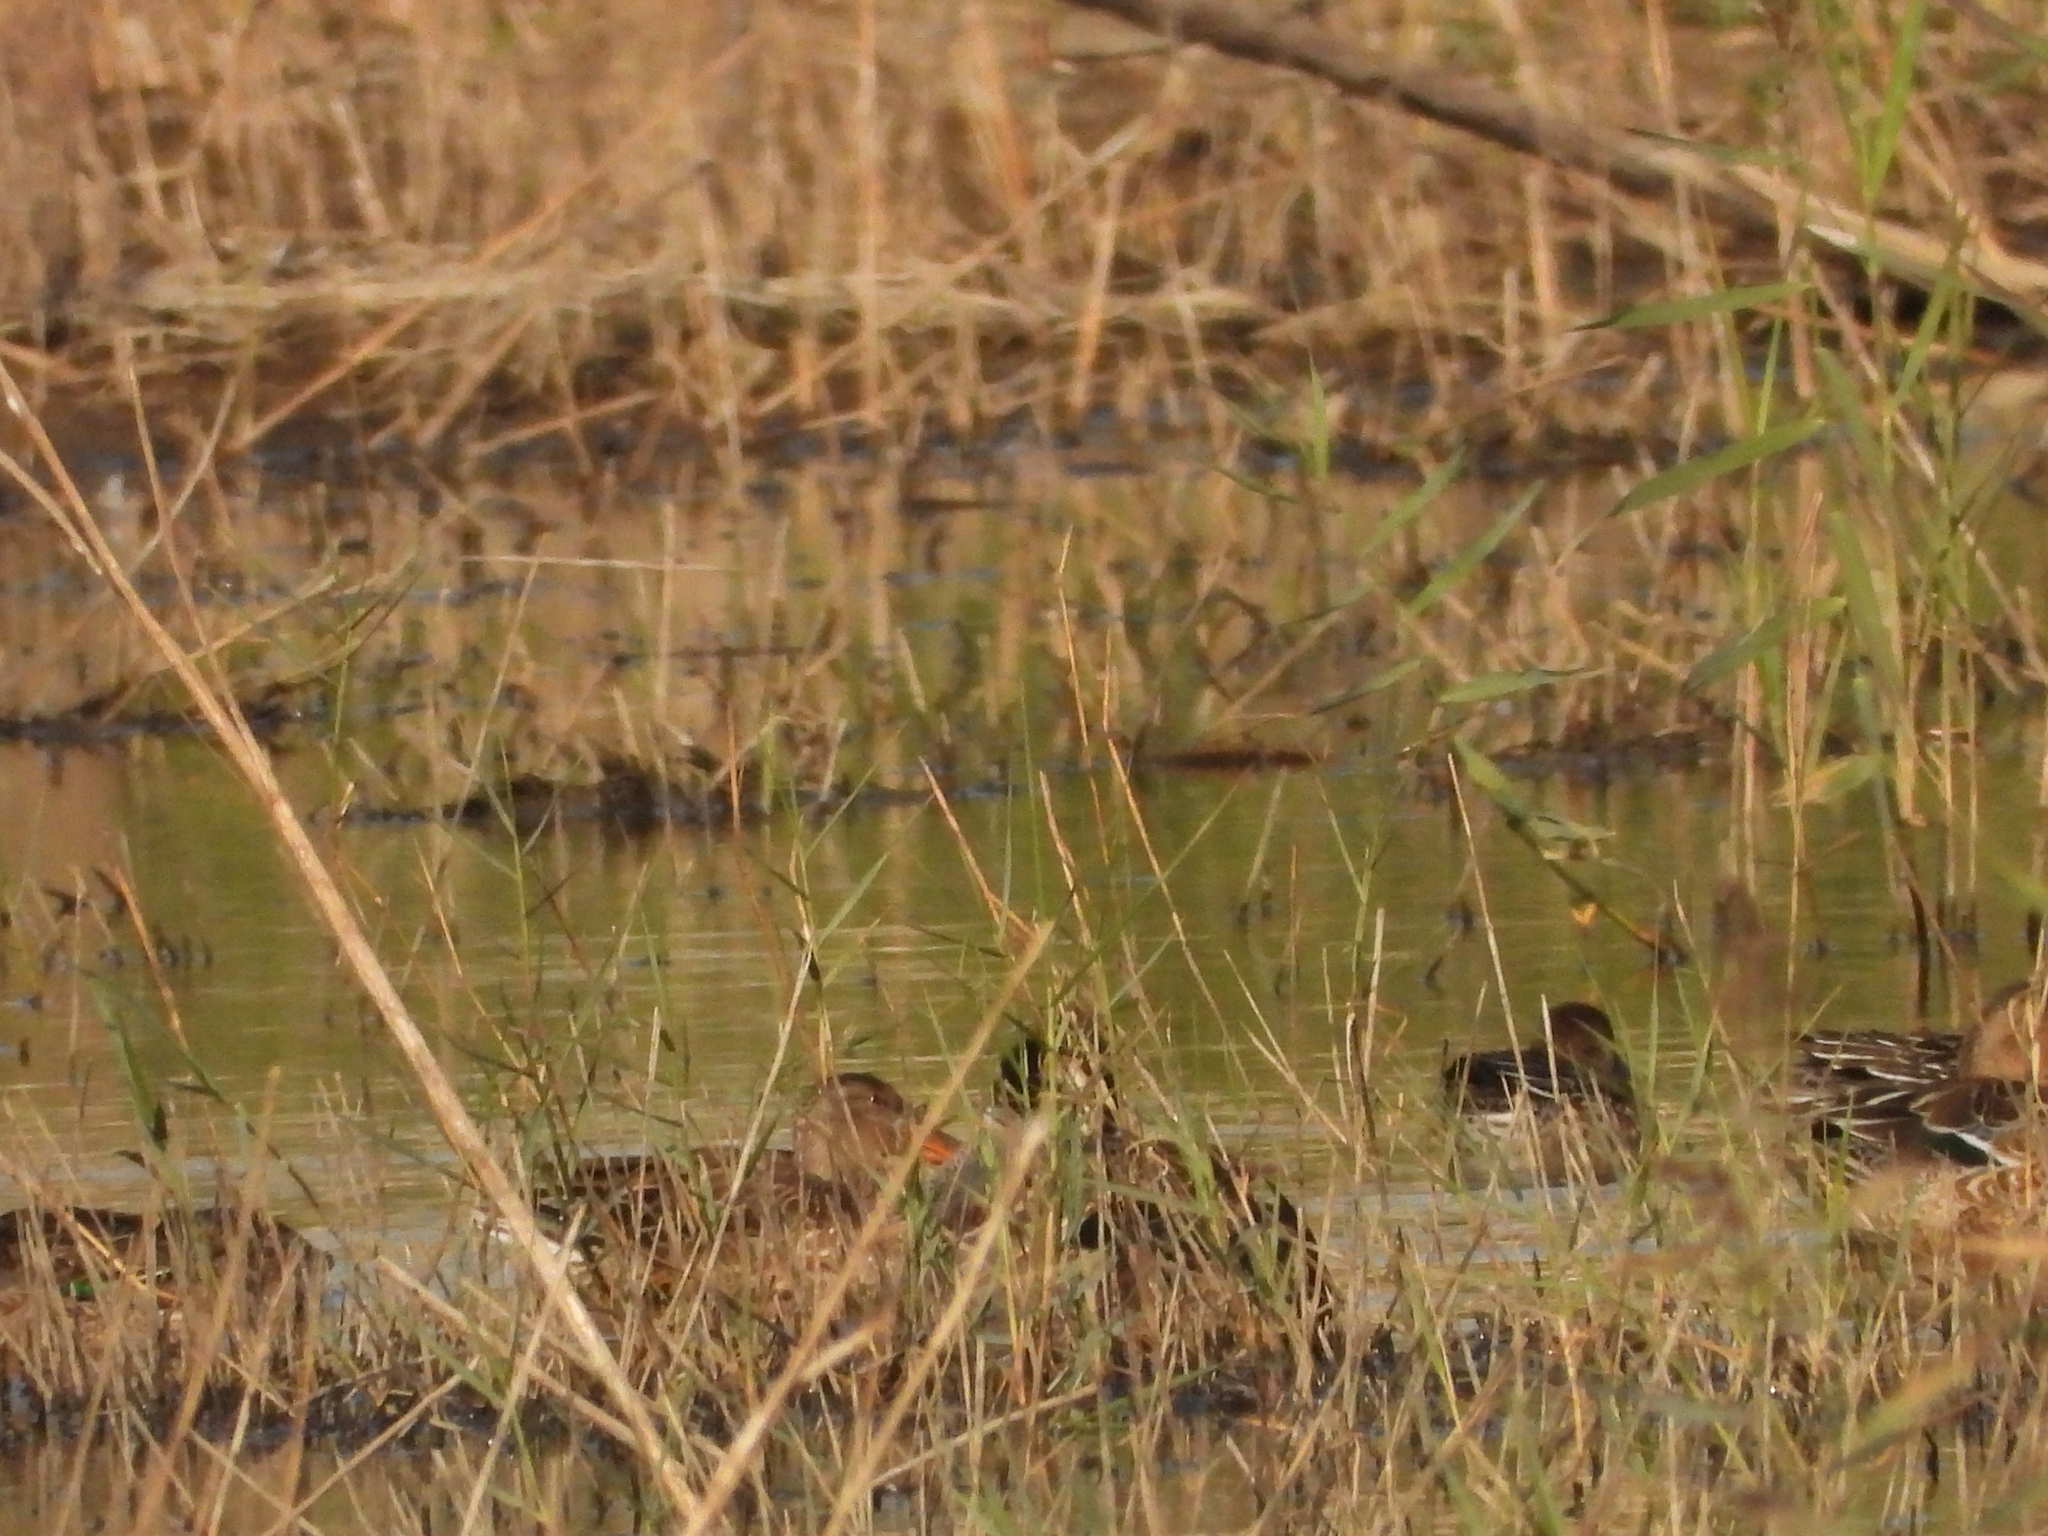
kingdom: Animalia
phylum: Chordata
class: Aves
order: Anseriformes
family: Anatidae
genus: Spatula
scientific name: Spatula clypeata
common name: Northern shoveler
